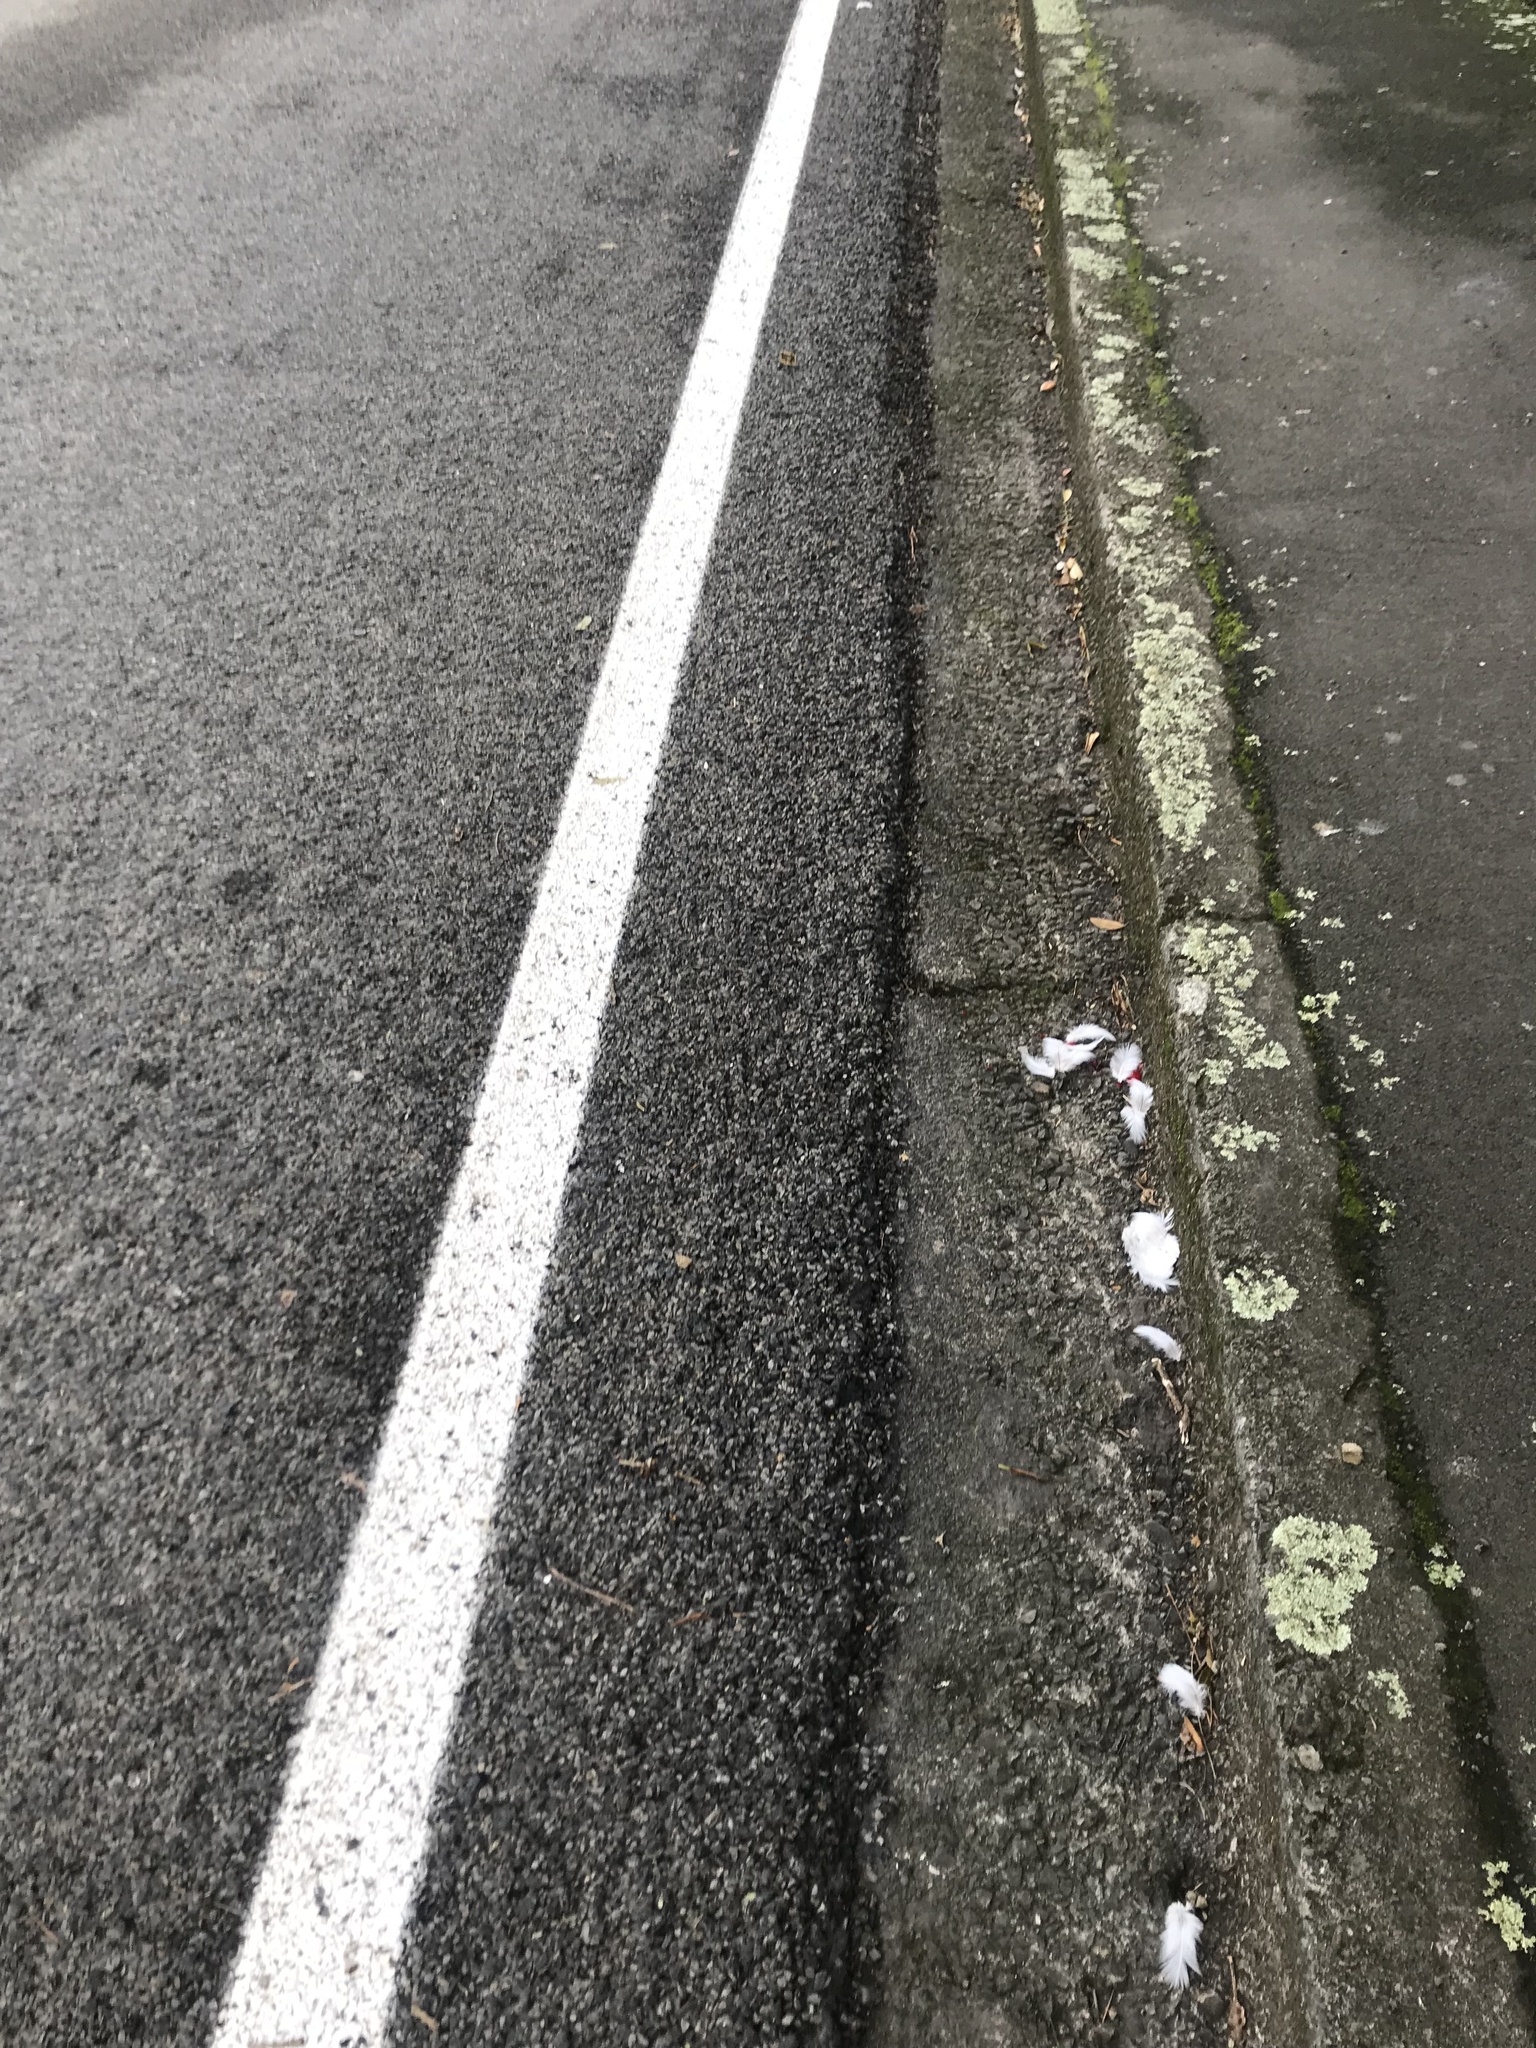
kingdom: Animalia
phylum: Chordata
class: Aves
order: Columbiformes
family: Columbidae
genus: Hemiphaga
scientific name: Hemiphaga novaeseelandiae
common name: New zealand pigeon
